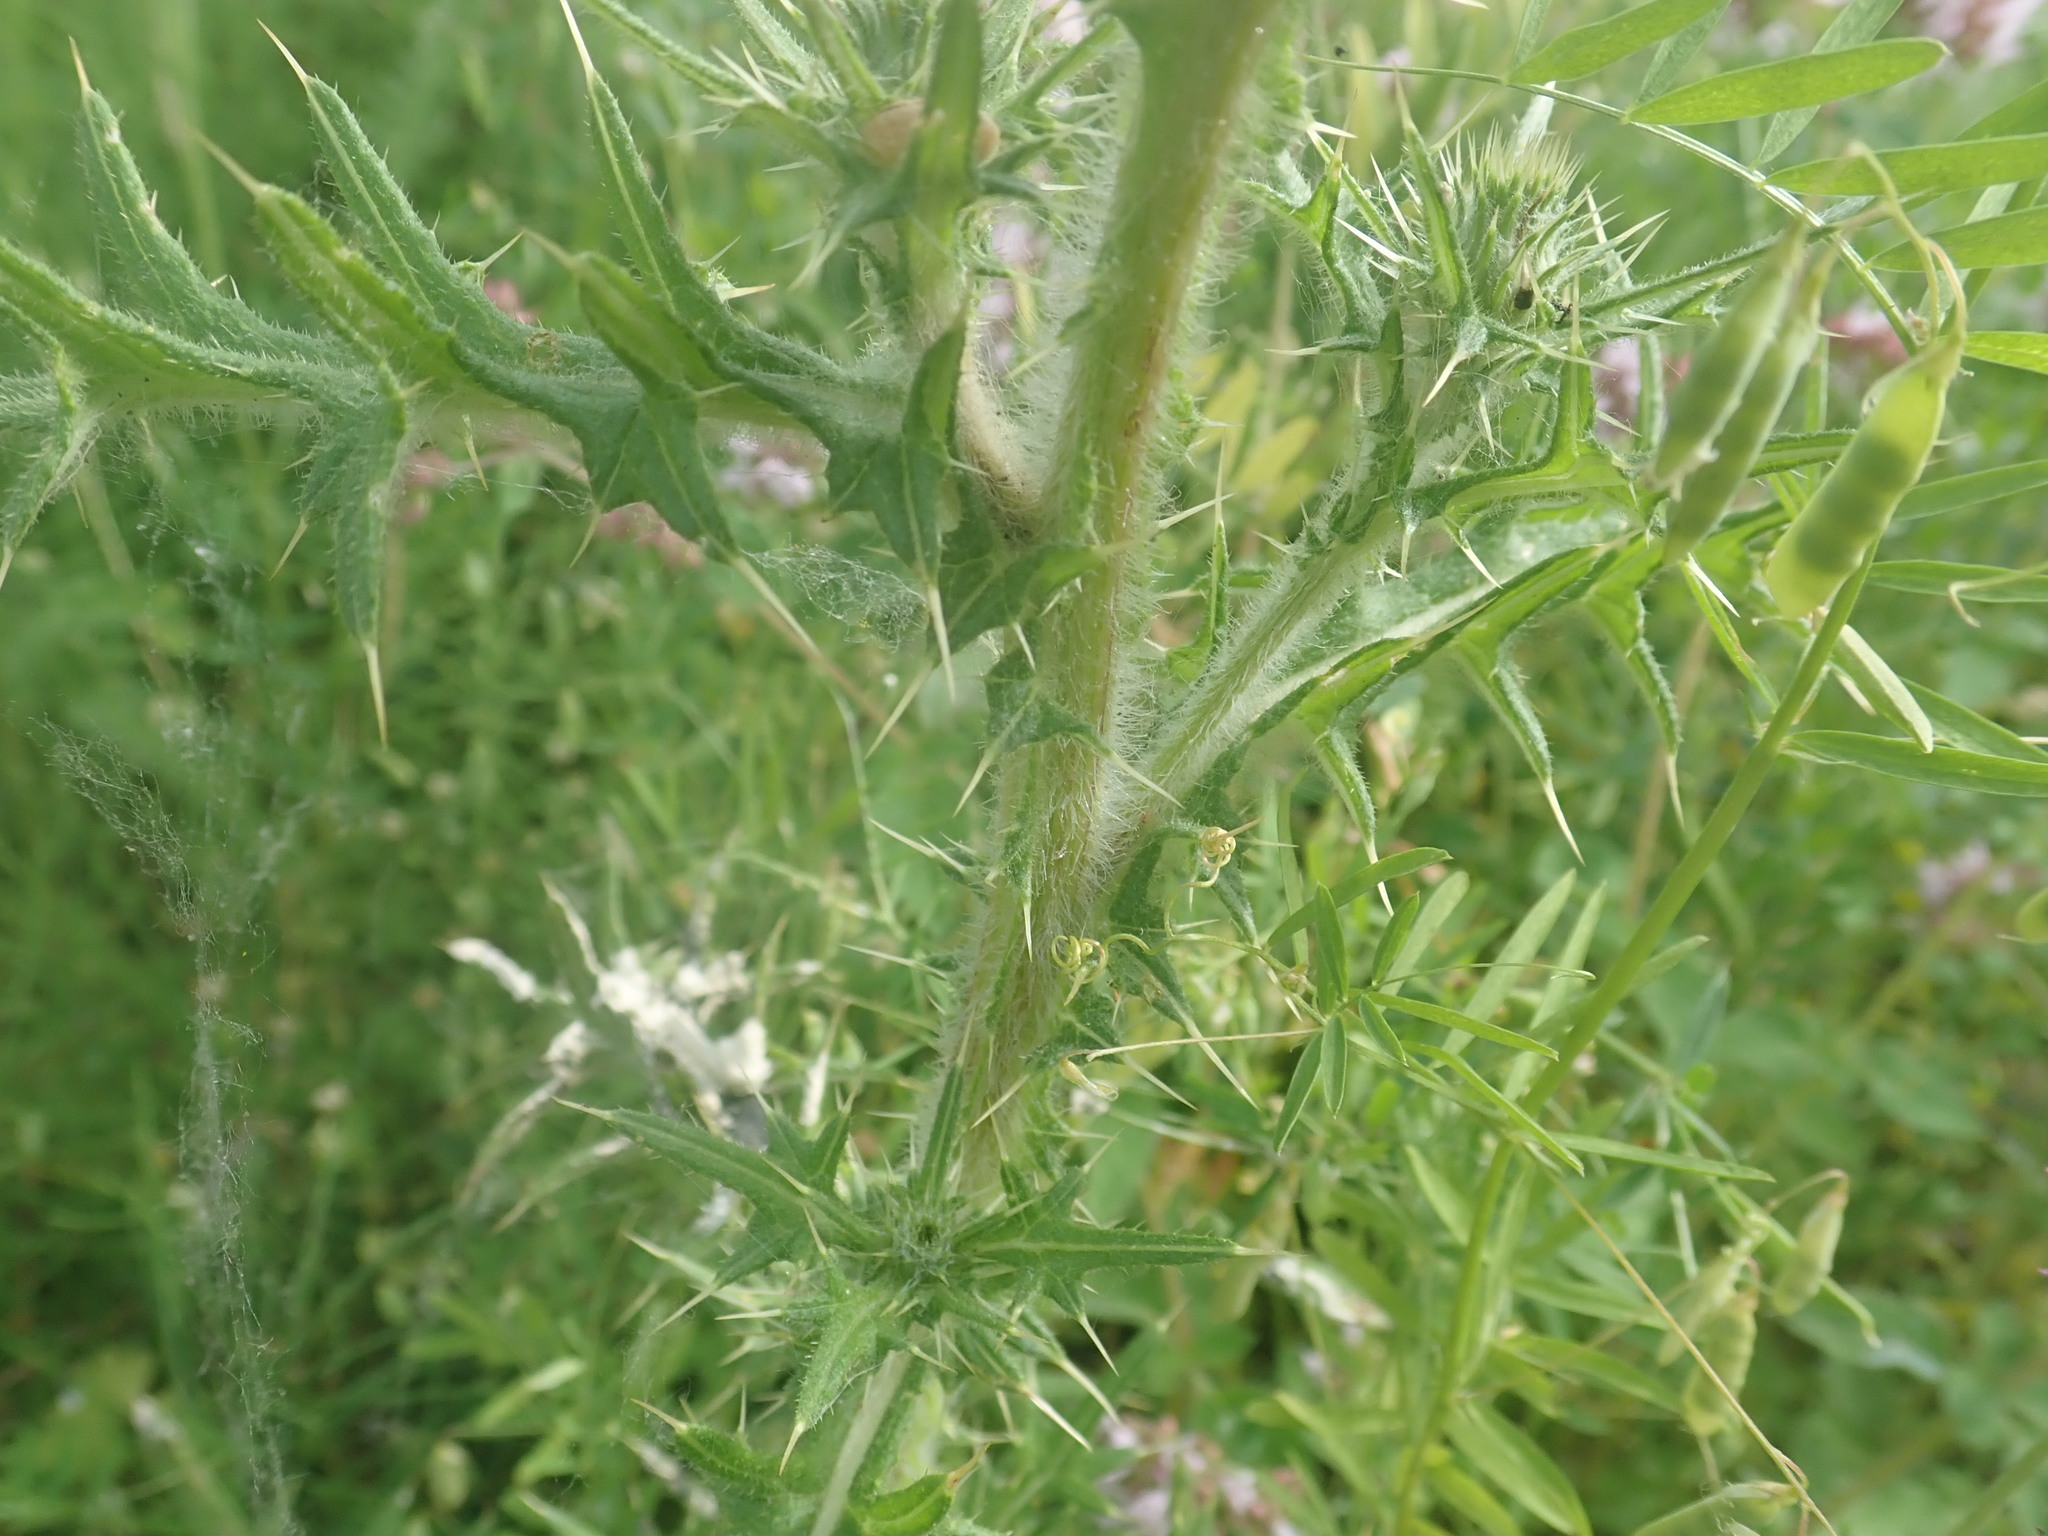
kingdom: Plantae
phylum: Tracheophyta
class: Magnoliopsida
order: Asterales
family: Asteraceae
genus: Cirsium
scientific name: Cirsium vulgare
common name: Bull thistle
